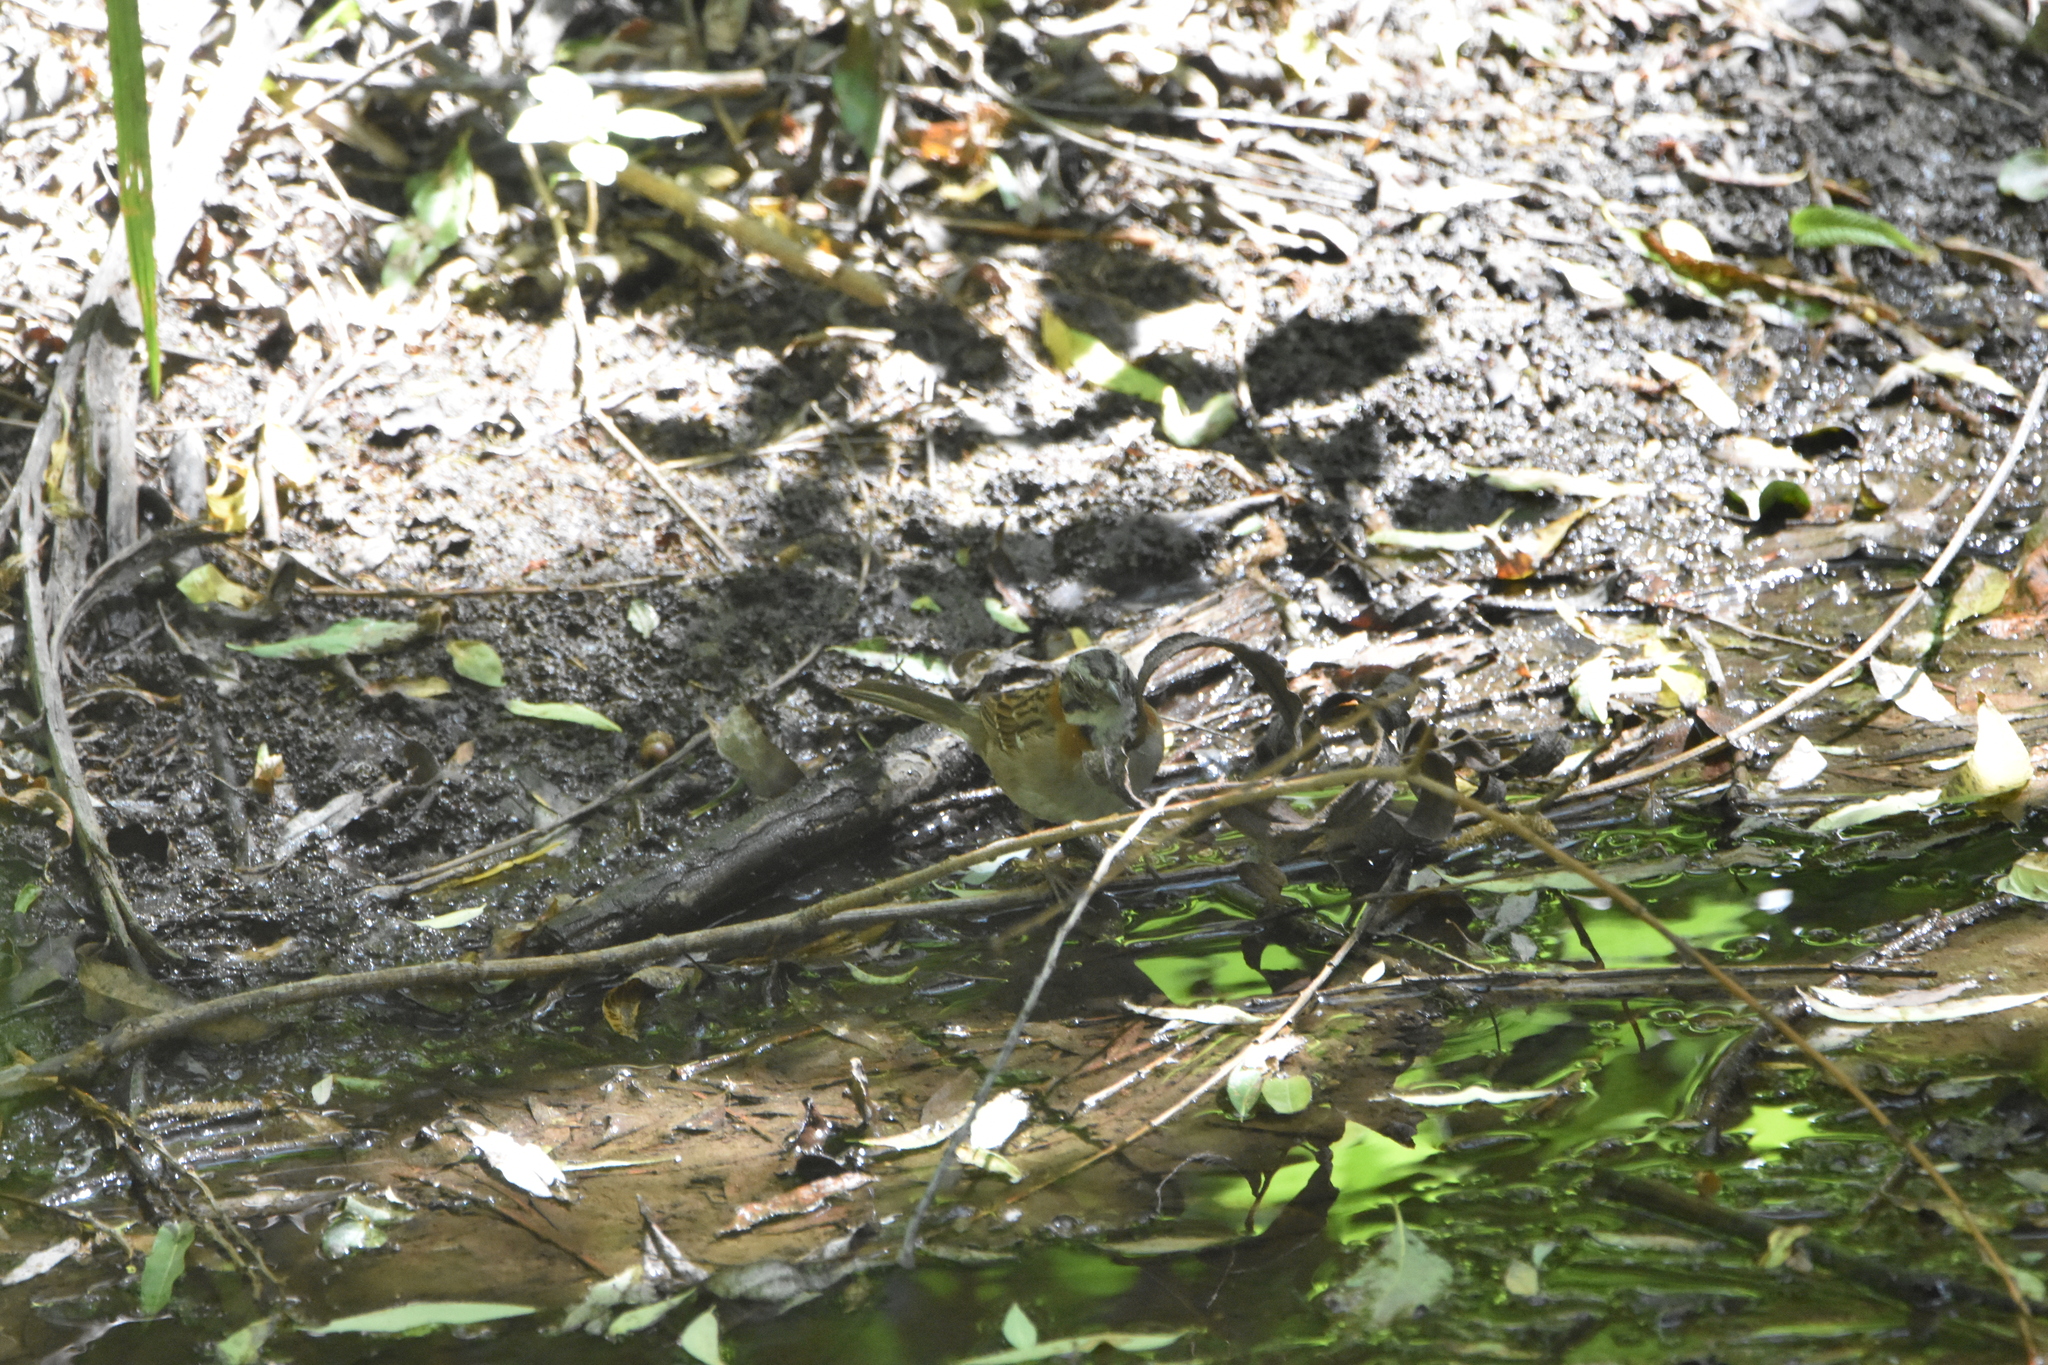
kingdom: Animalia
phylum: Chordata
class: Aves
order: Passeriformes
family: Passerellidae
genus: Zonotrichia
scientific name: Zonotrichia capensis
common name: Rufous-collared sparrow
